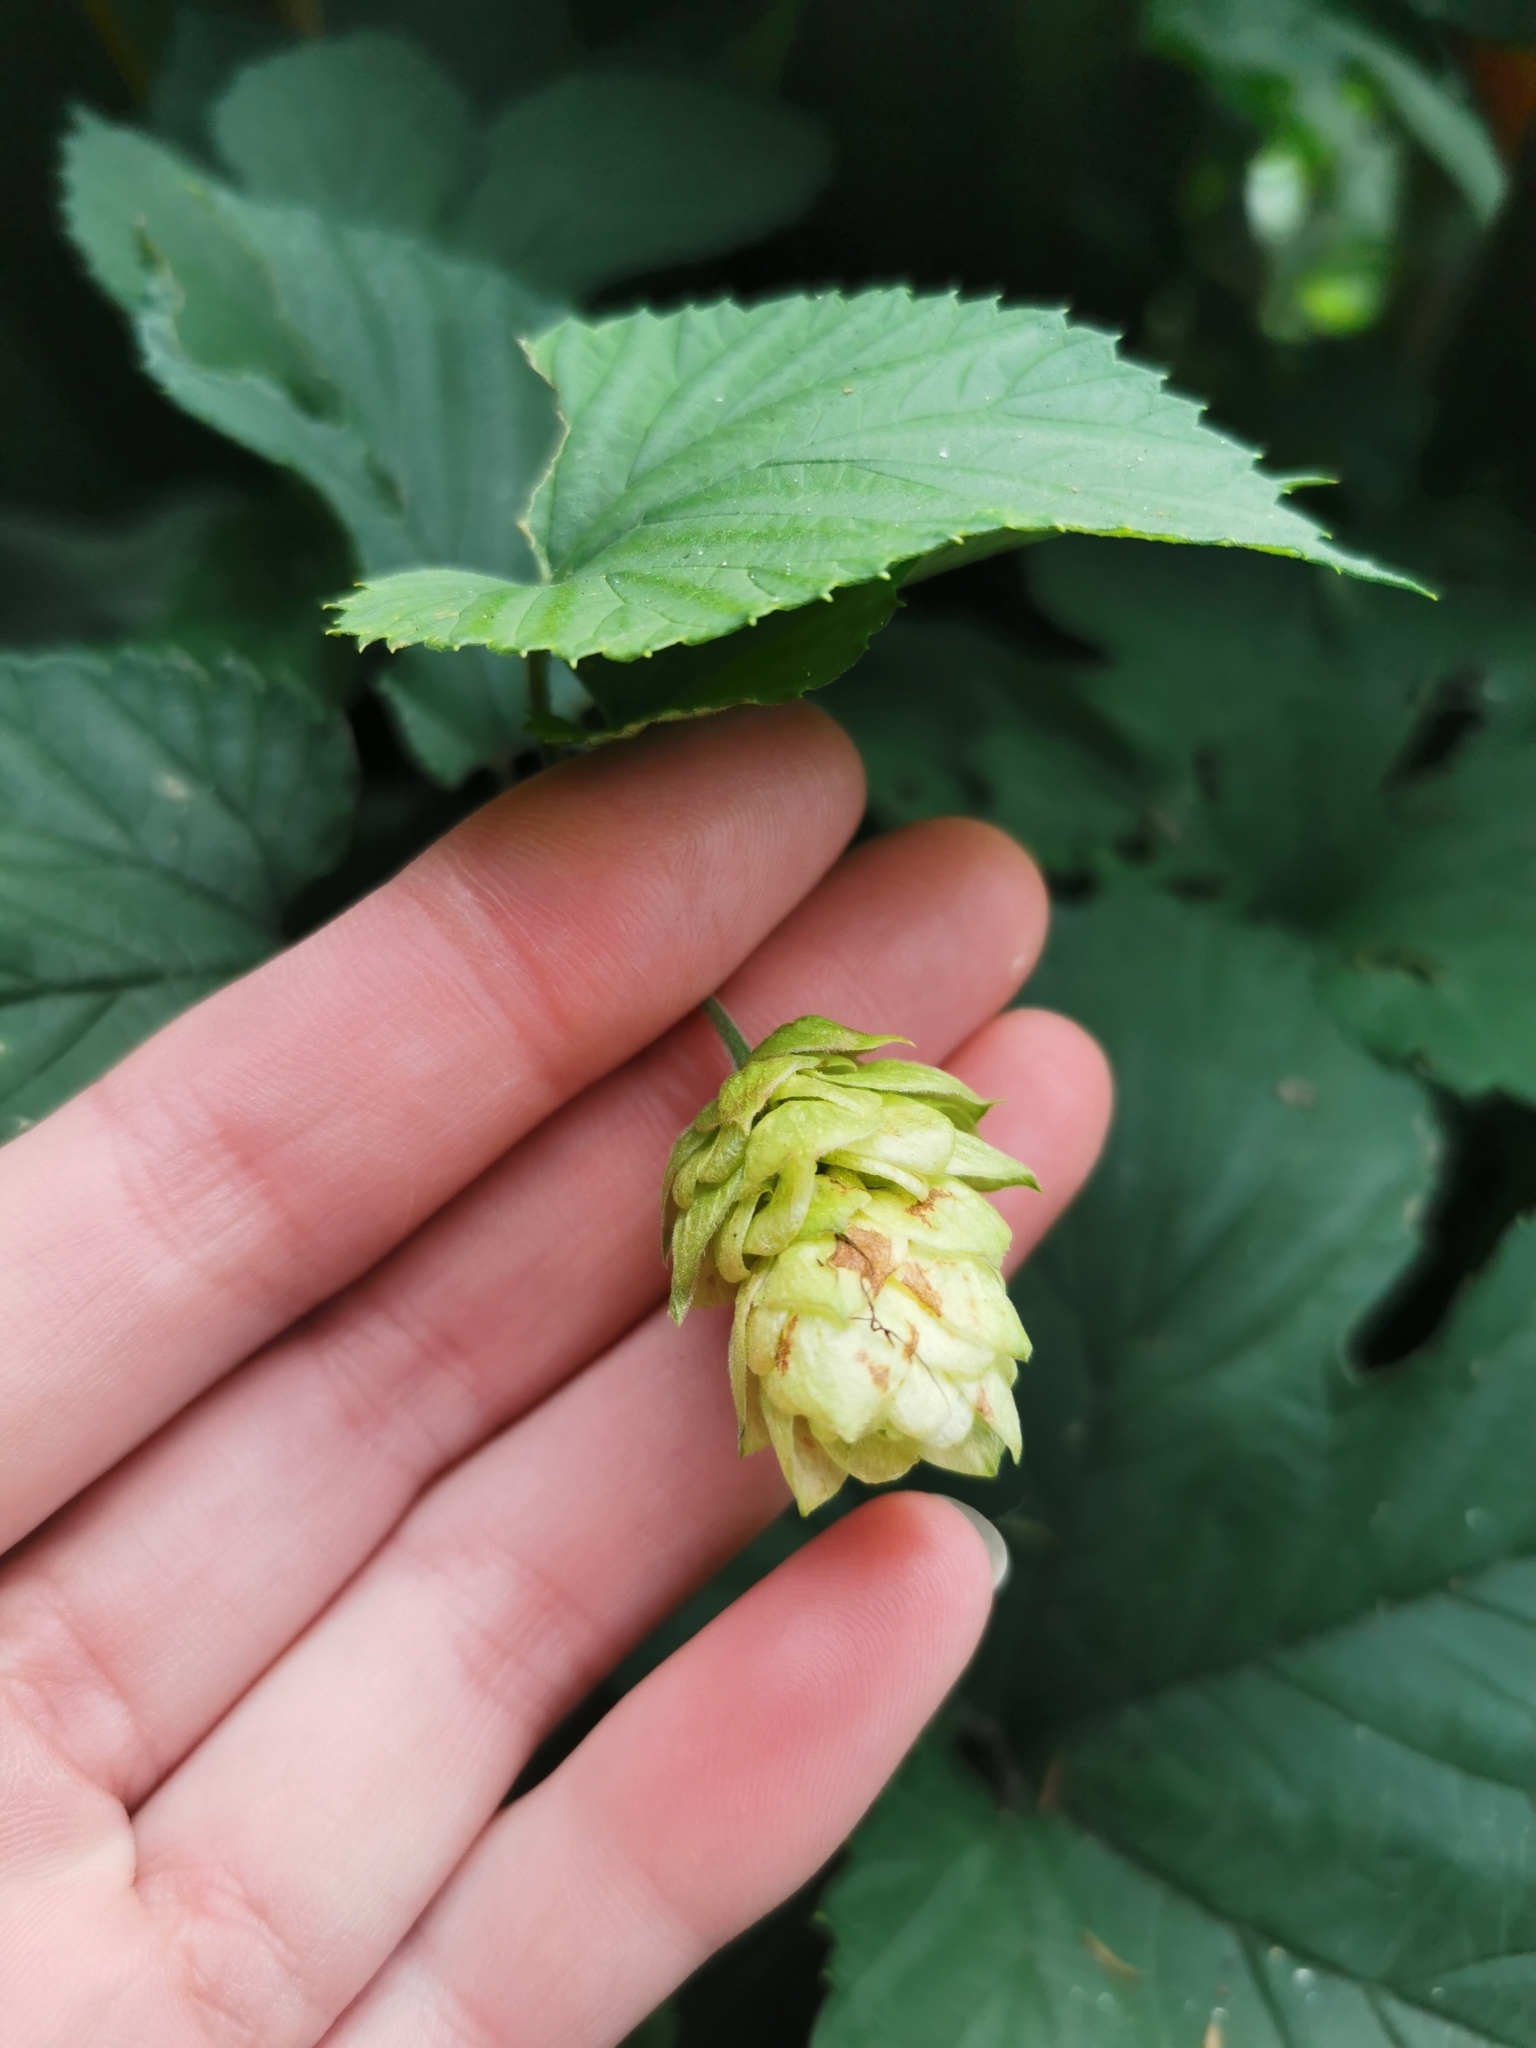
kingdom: Plantae
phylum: Tracheophyta
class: Magnoliopsida
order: Rosales
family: Cannabaceae
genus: Humulus
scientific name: Humulus lupulus
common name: Hop
